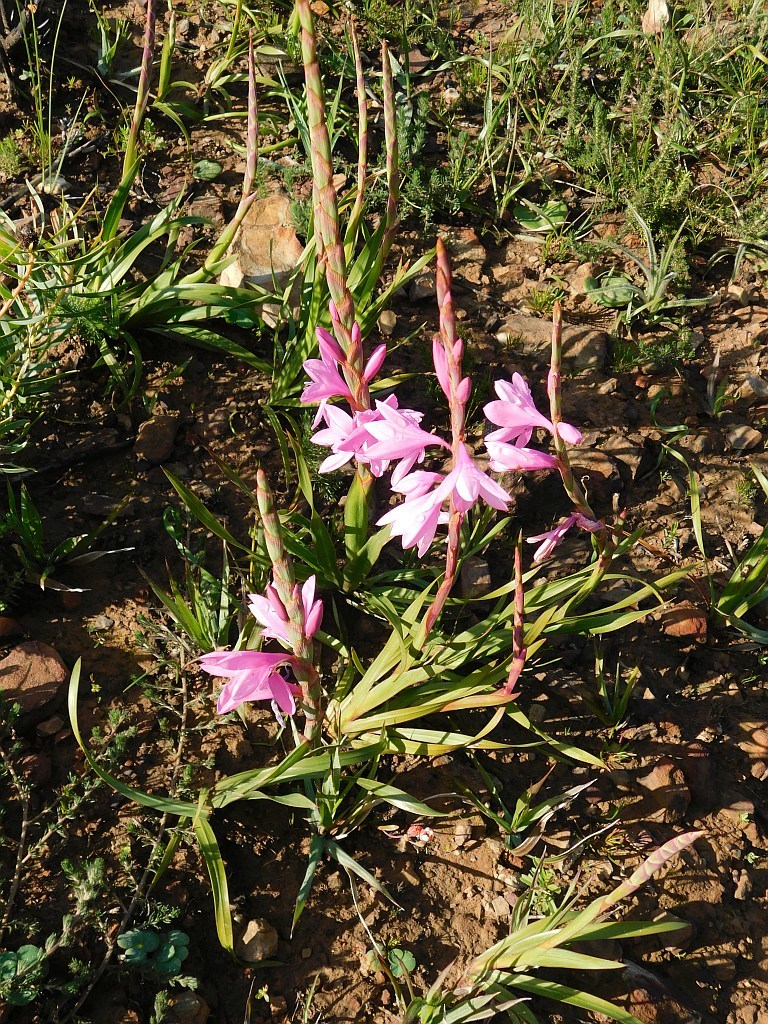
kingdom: Plantae
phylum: Tracheophyta
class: Liliopsida
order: Asparagales
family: Iridaceae
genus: Watsonia
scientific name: Watsonia laccata
